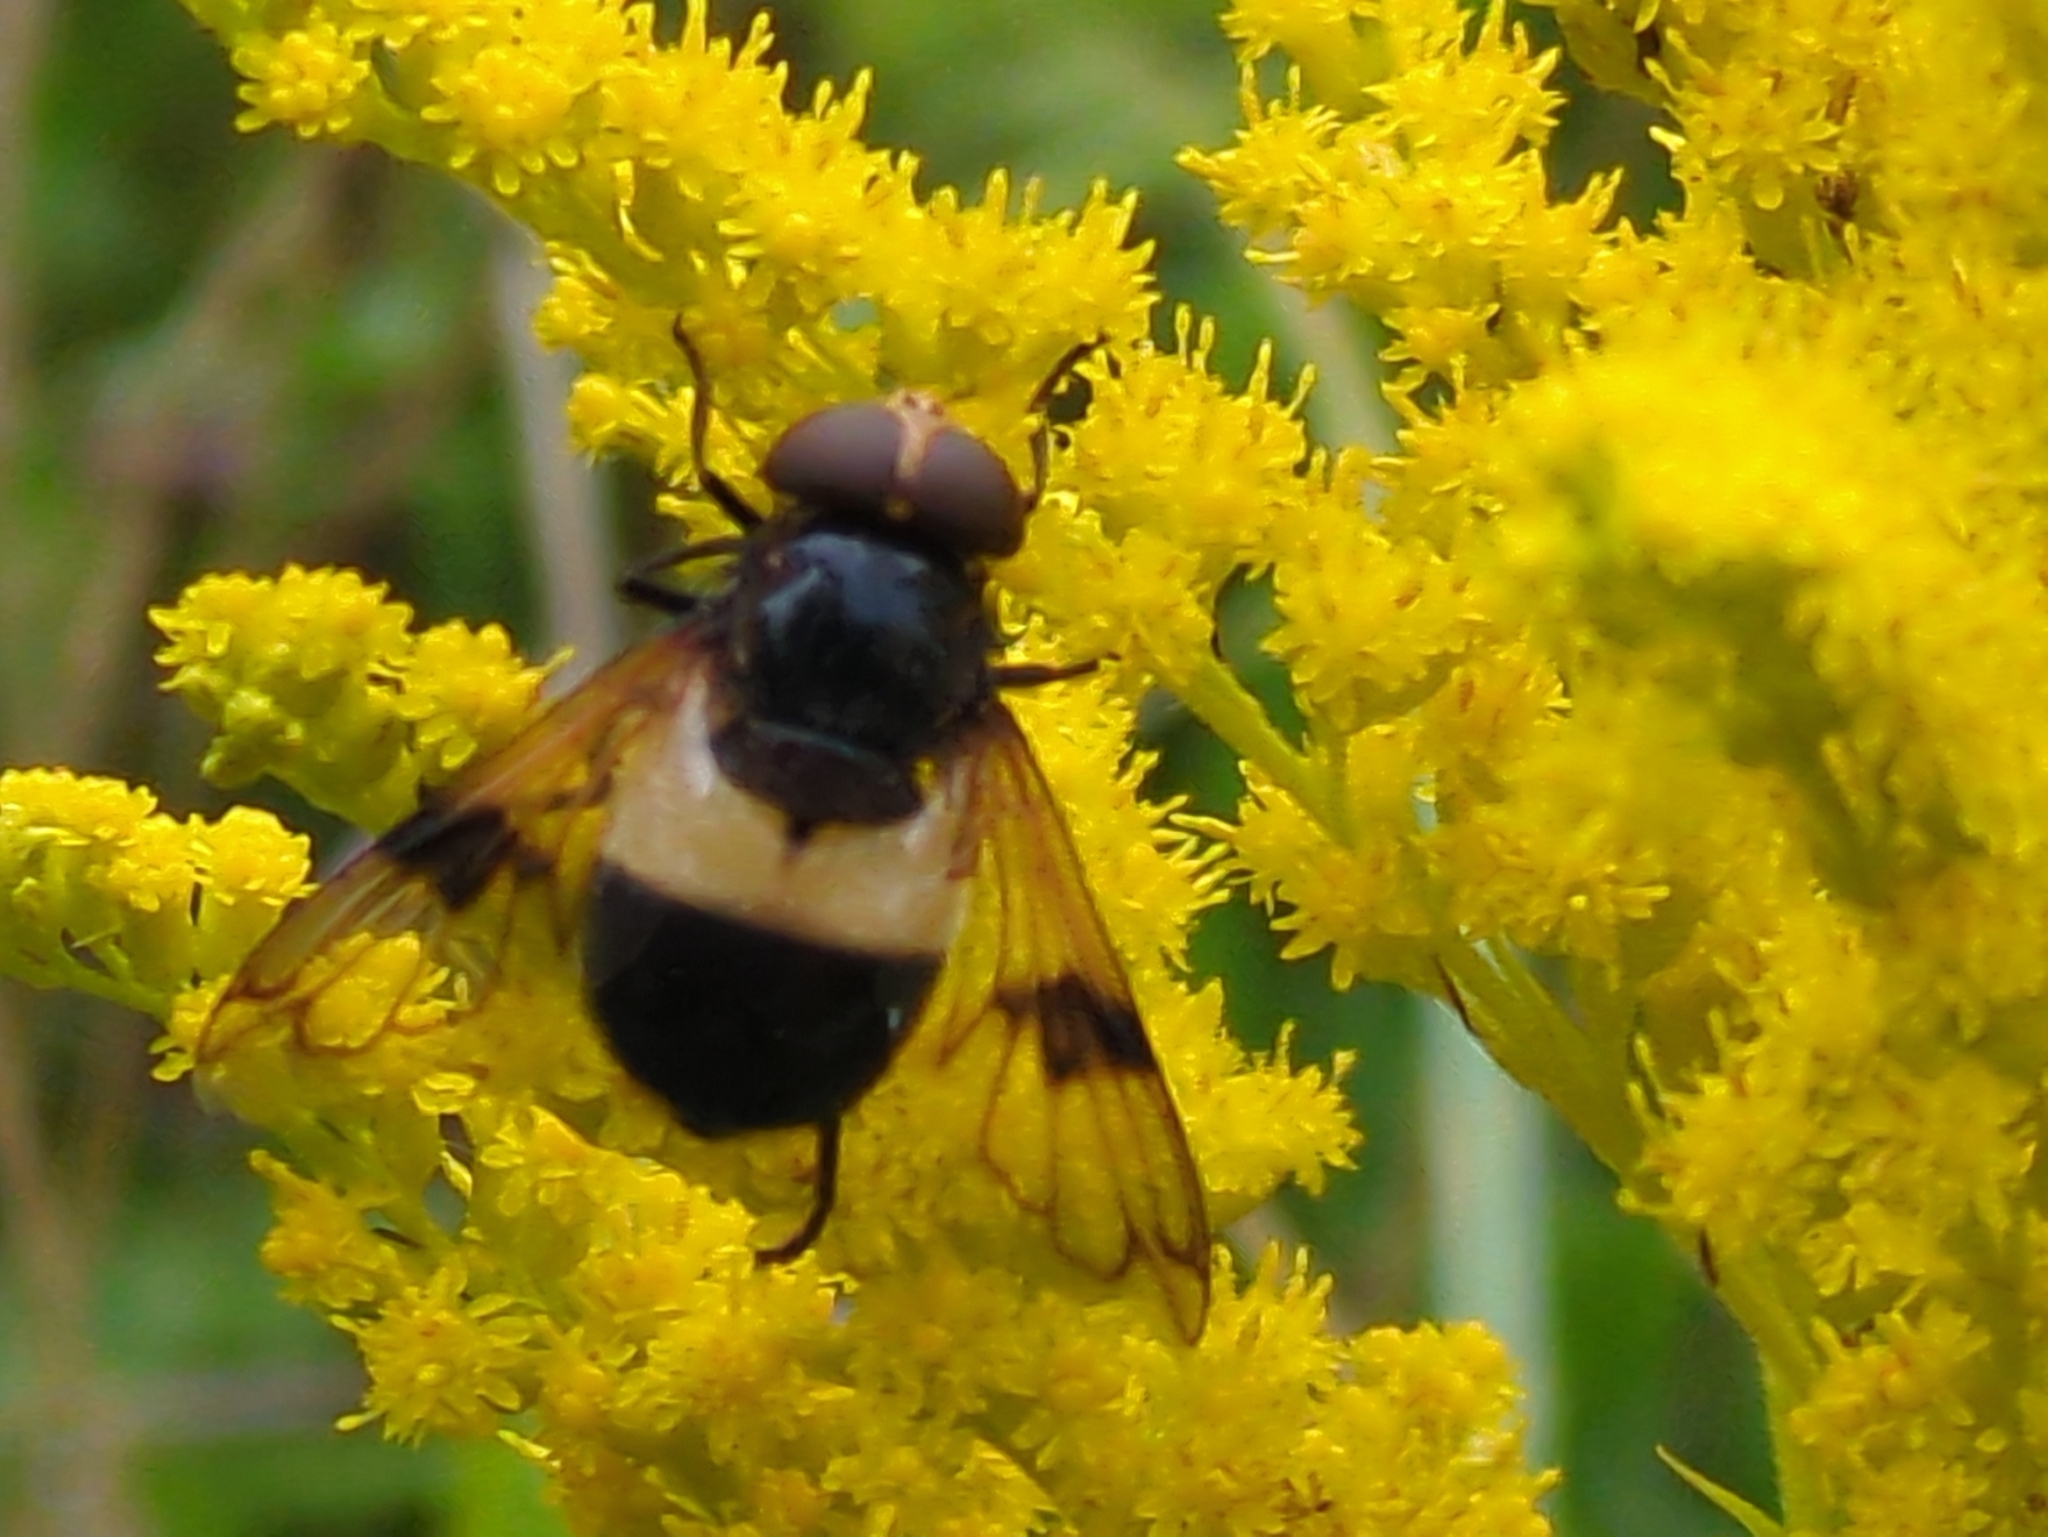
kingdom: Animalia
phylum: Arthropoda
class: Insecta
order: Diptera
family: Syrphidae
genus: Volucella
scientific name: Volucella pellucens
